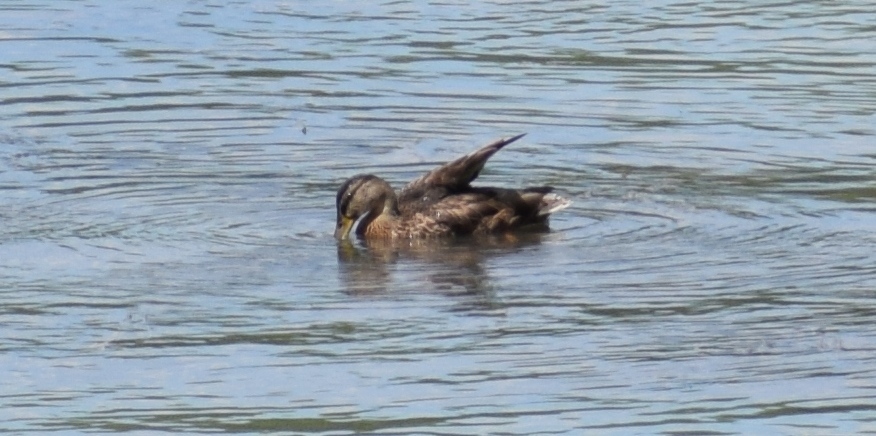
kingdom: Animalia
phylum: Chordata
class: Aves
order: Anseriformes
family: Anatidae
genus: Anas
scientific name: Anas platyrhynchos
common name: Mallard
